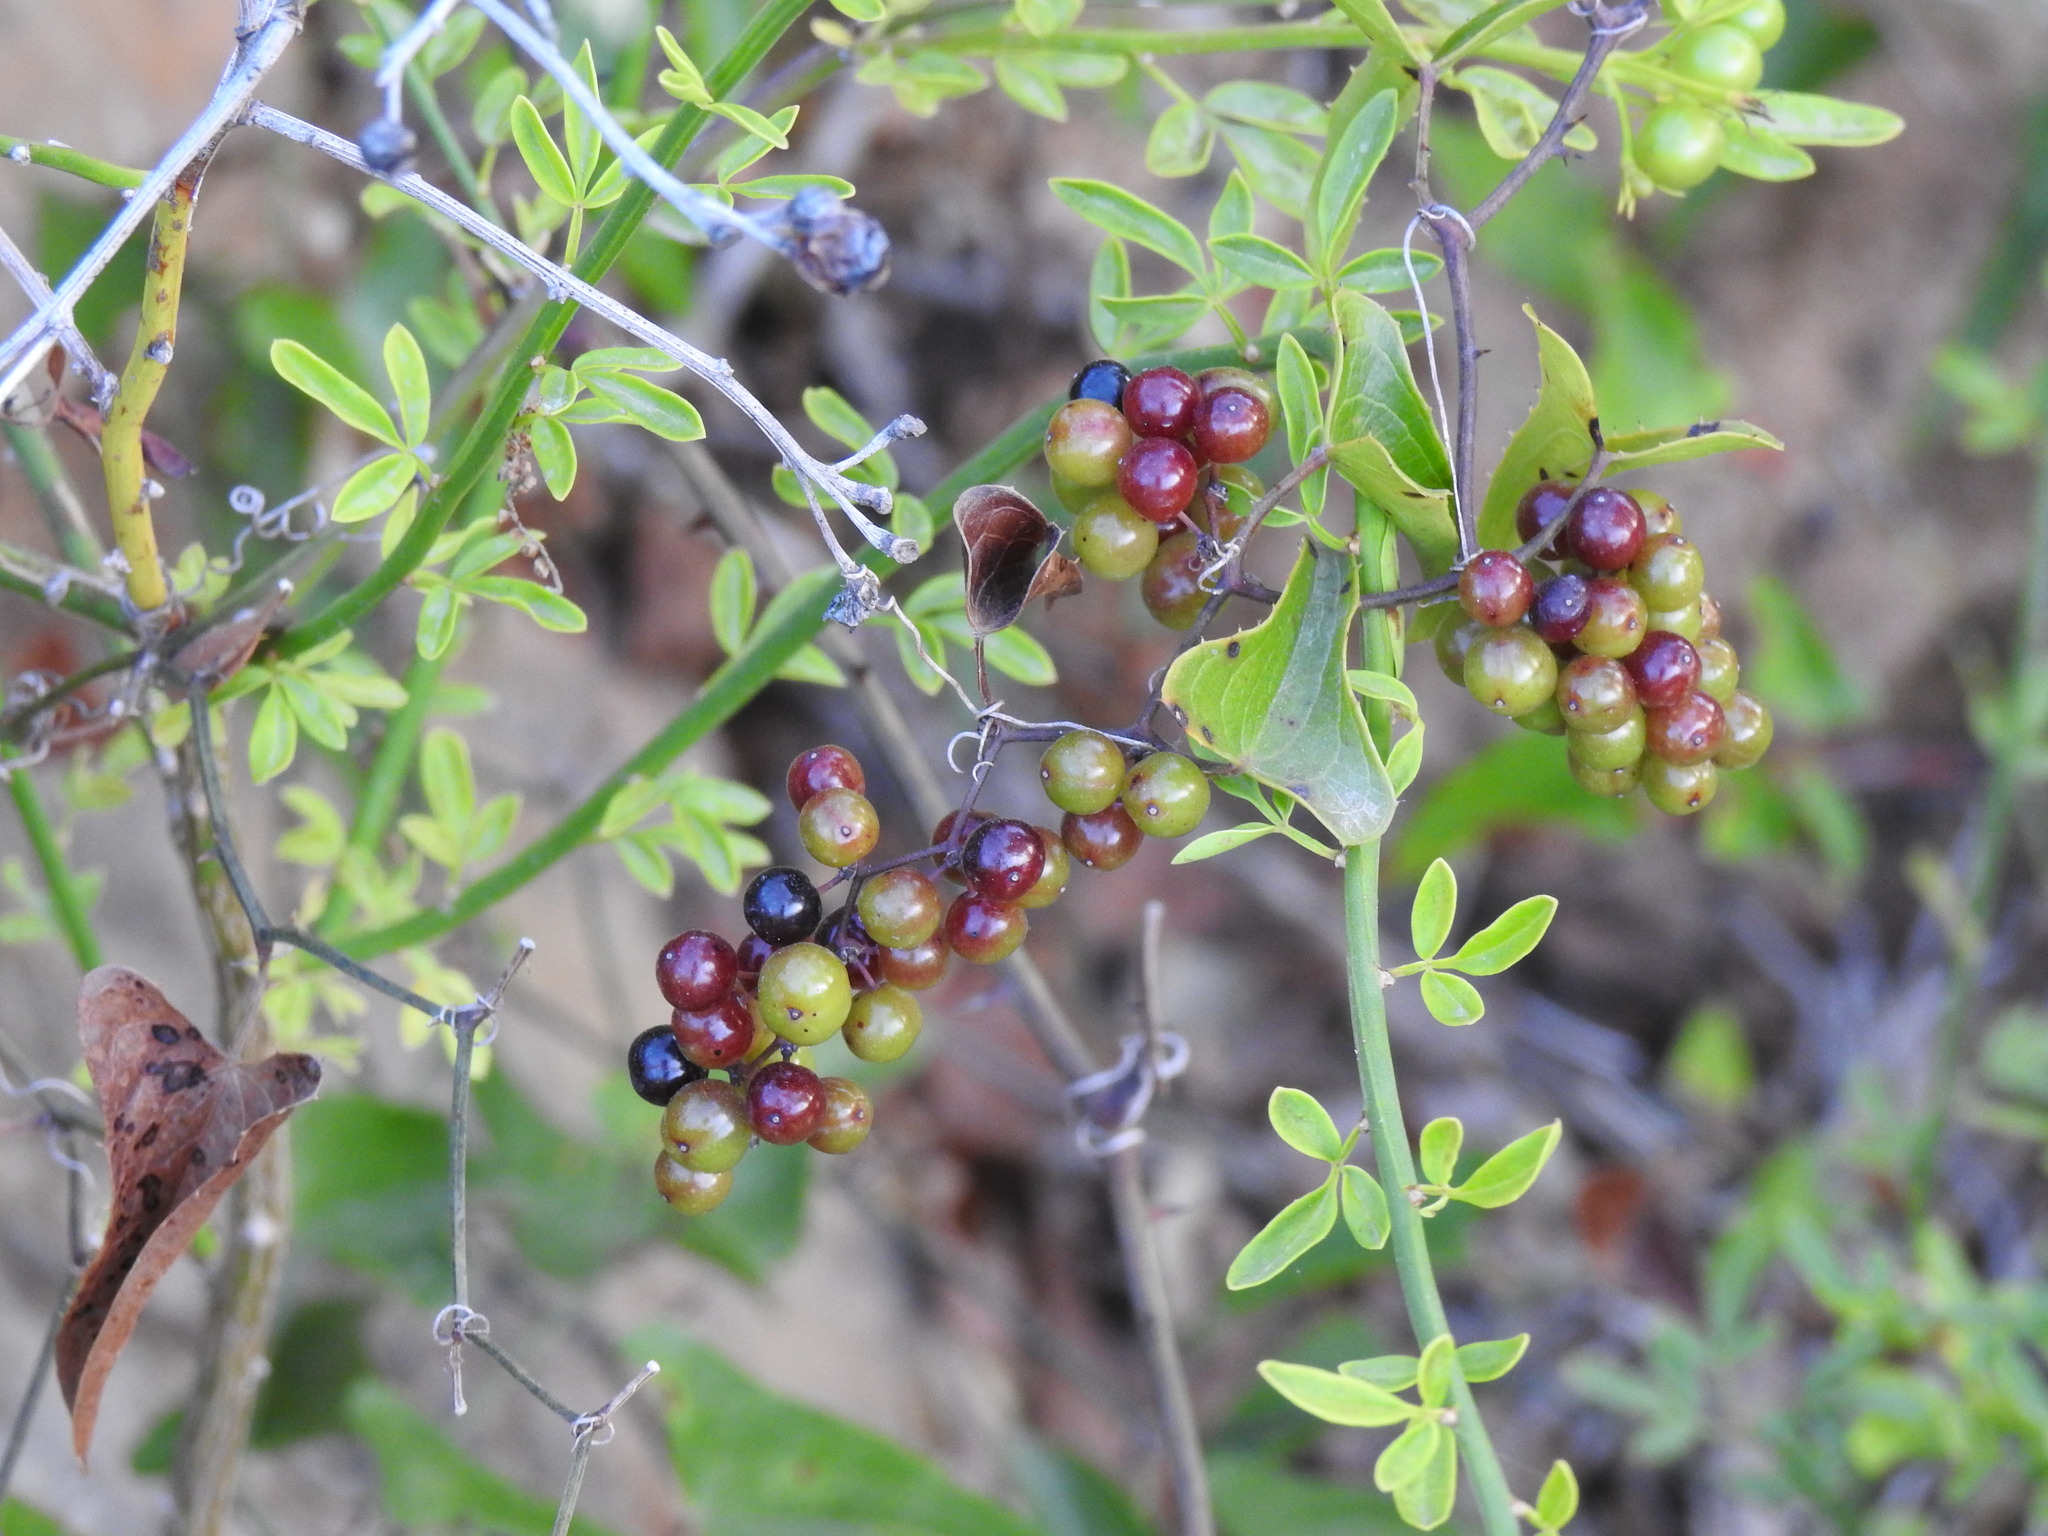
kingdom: Plantae
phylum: Tracheophyta
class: Liliopsida
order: Liliales
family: Smilacaceae
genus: Smilax
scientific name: Smilax aspera
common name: Common smilax
